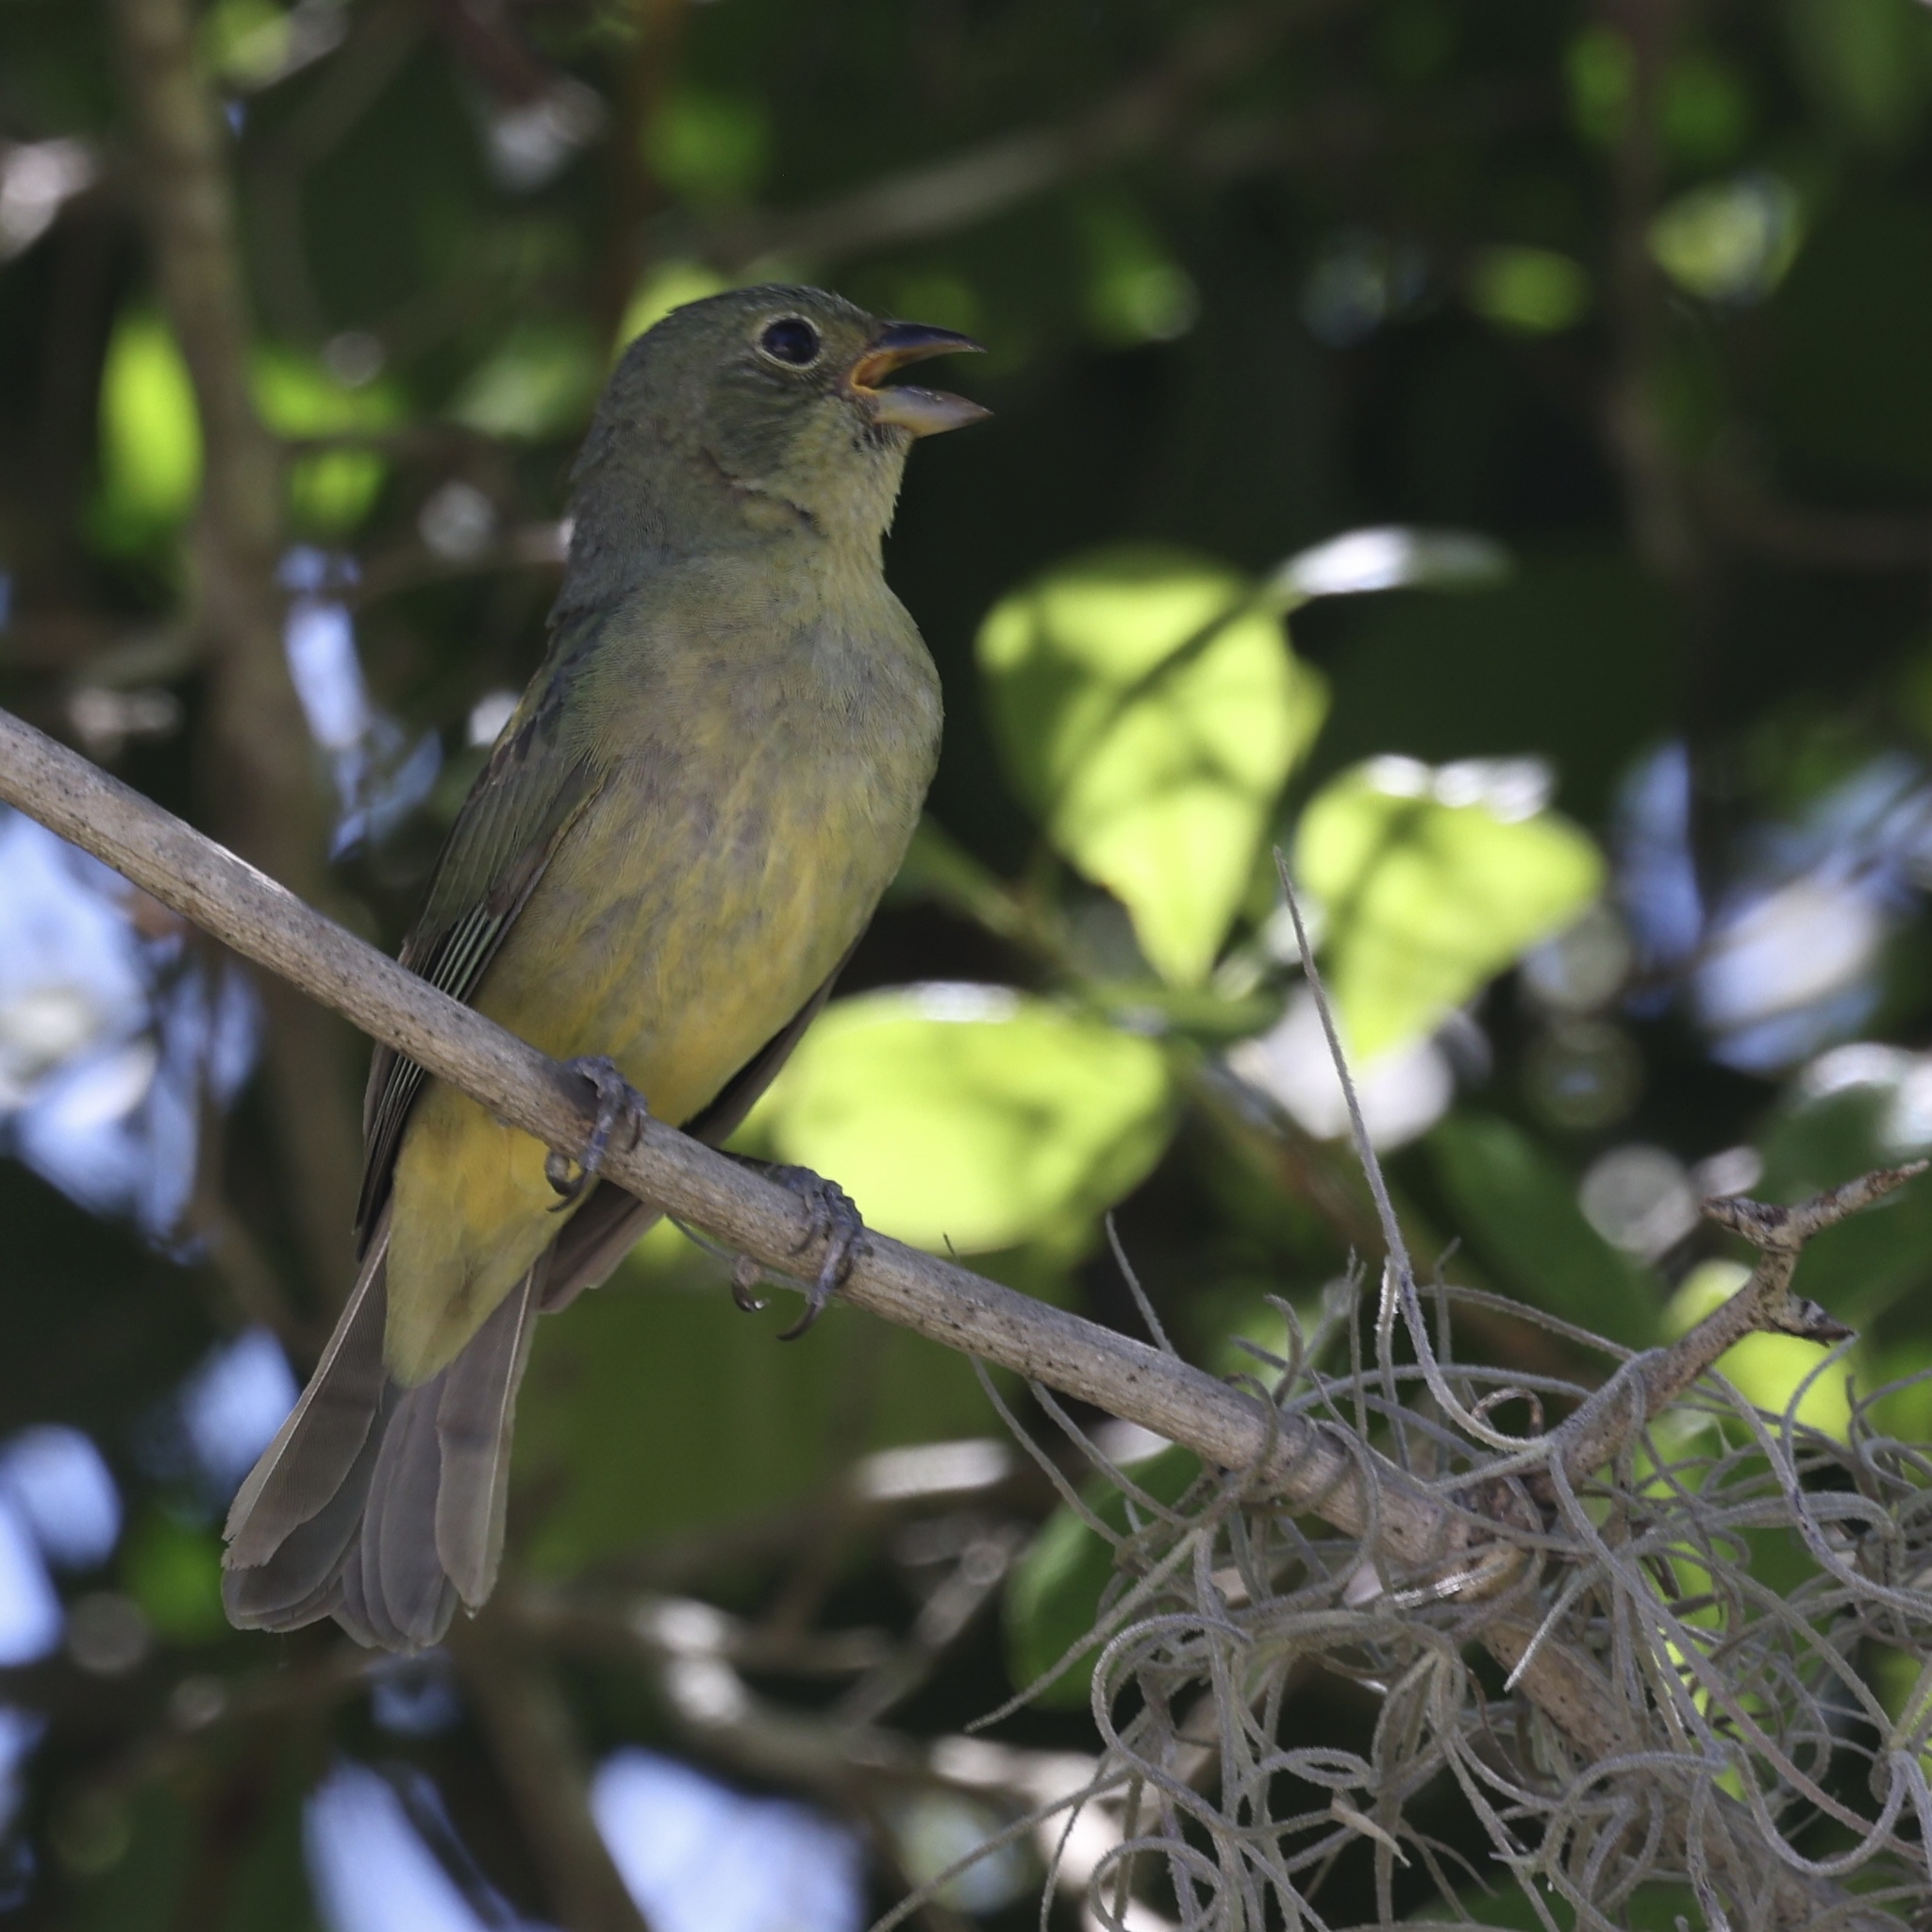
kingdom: Animalia
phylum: Chordata
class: Aves
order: Passeriformes
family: Cardinalidae
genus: Passerina
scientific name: Passerina ciris
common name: Painted bunting
